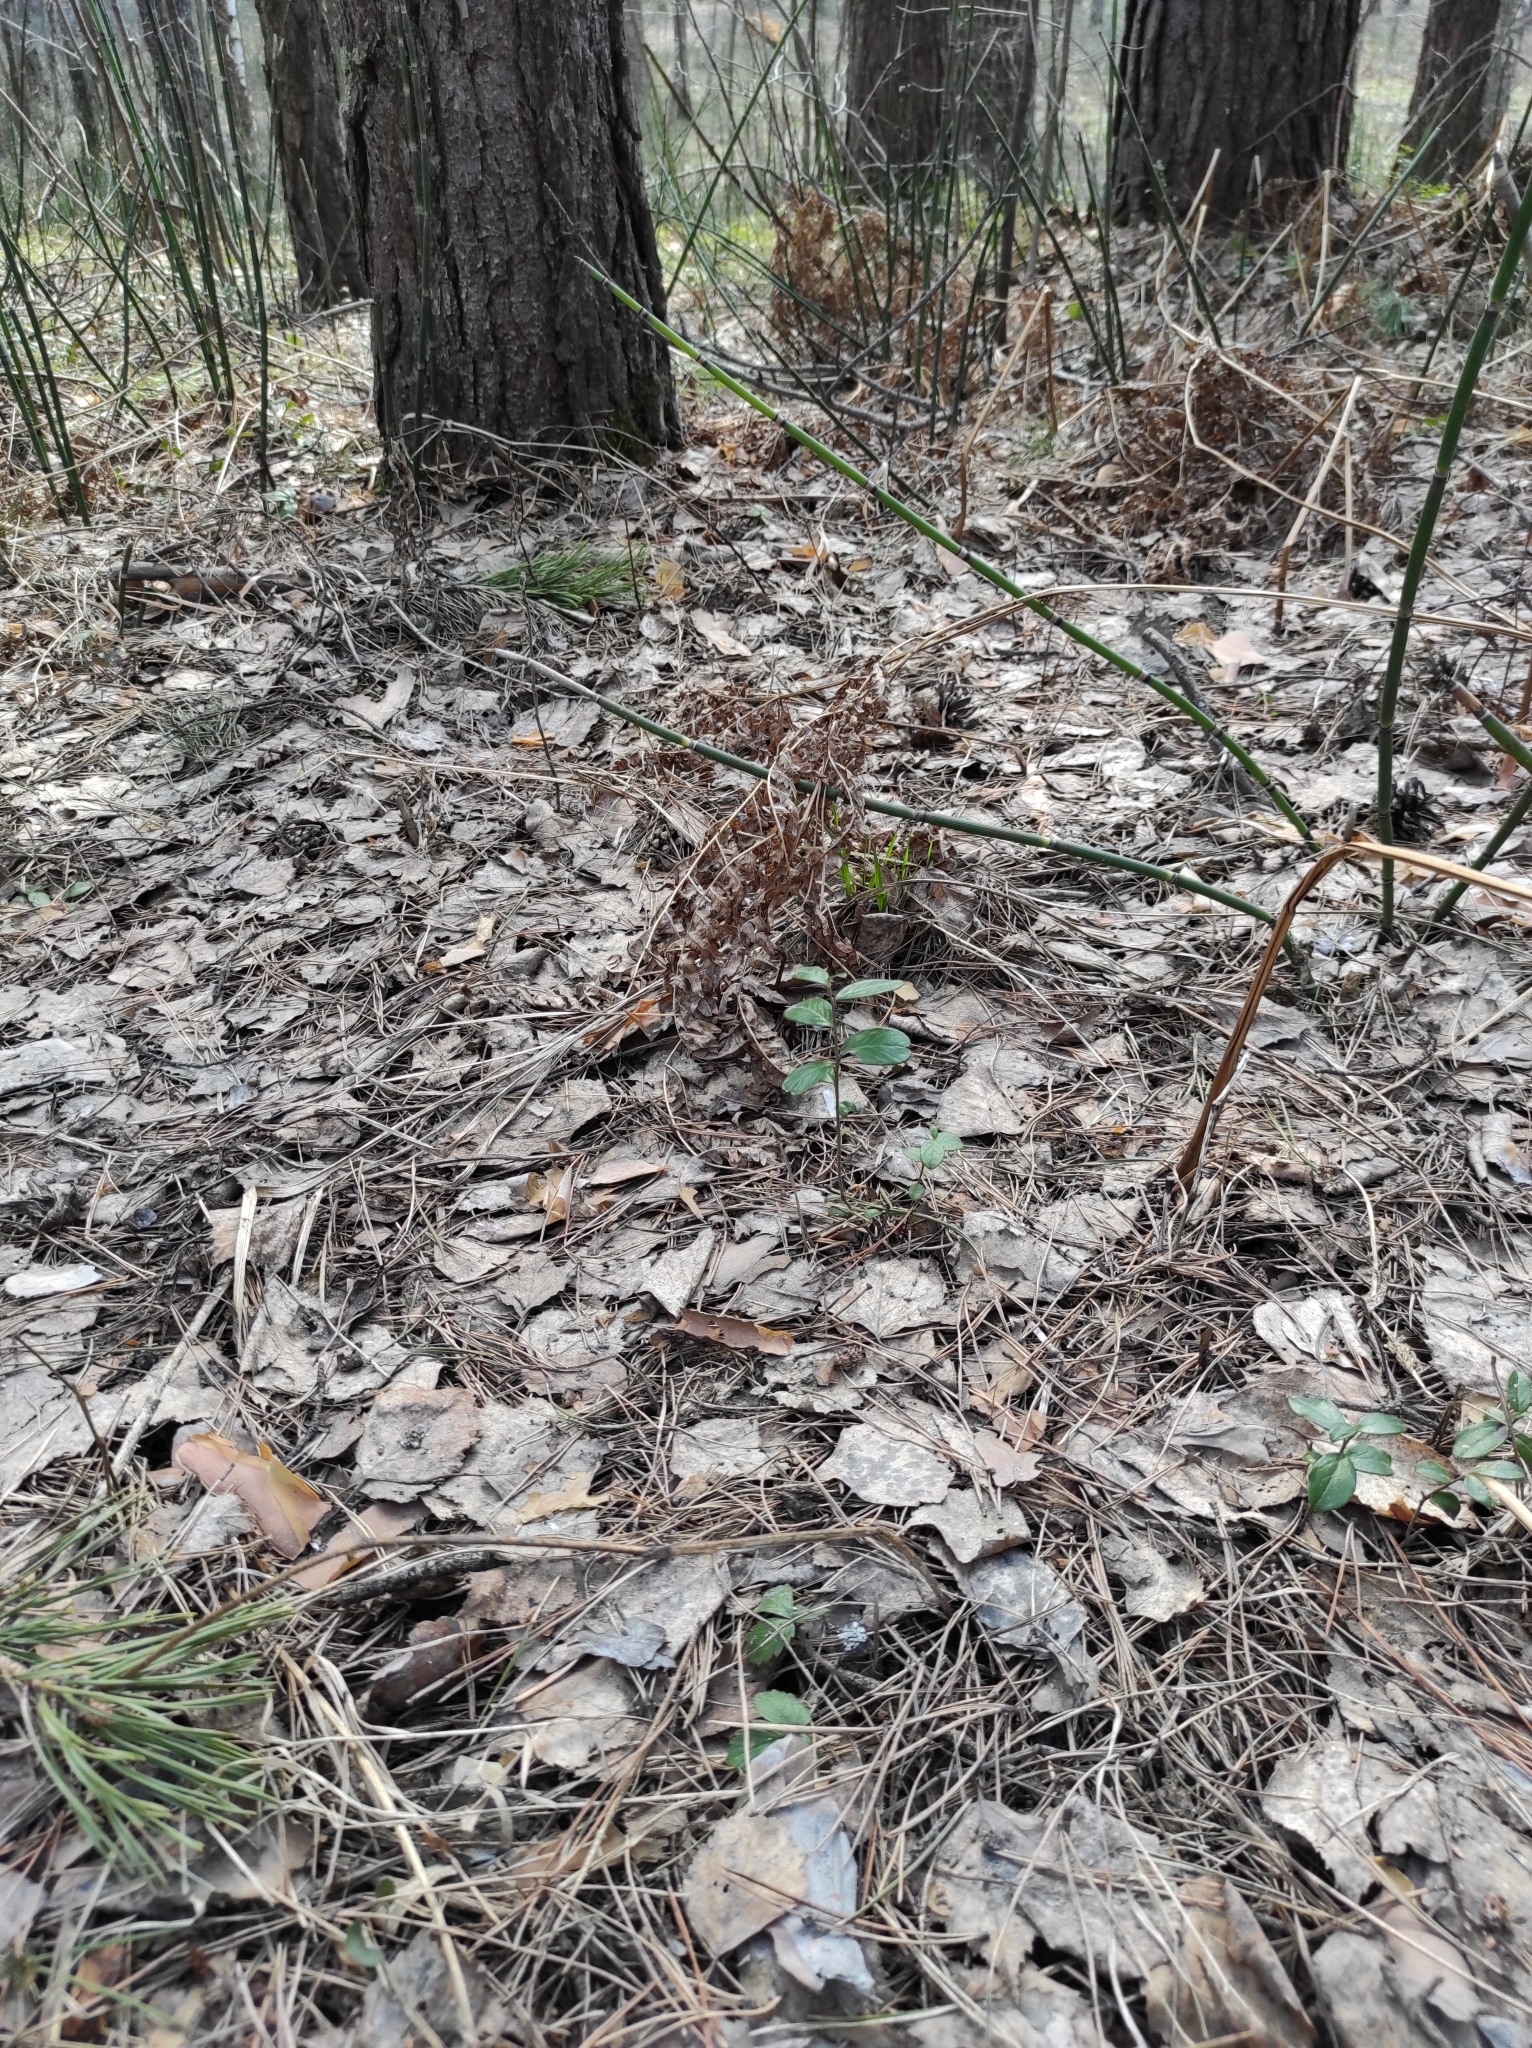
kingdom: Plantae
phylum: Tracheophyta
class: Magnoliopsida
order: Ericales
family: Ericaceae
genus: Vaccinium
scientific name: Vaccinium vitis-idaea
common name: Cowberry
